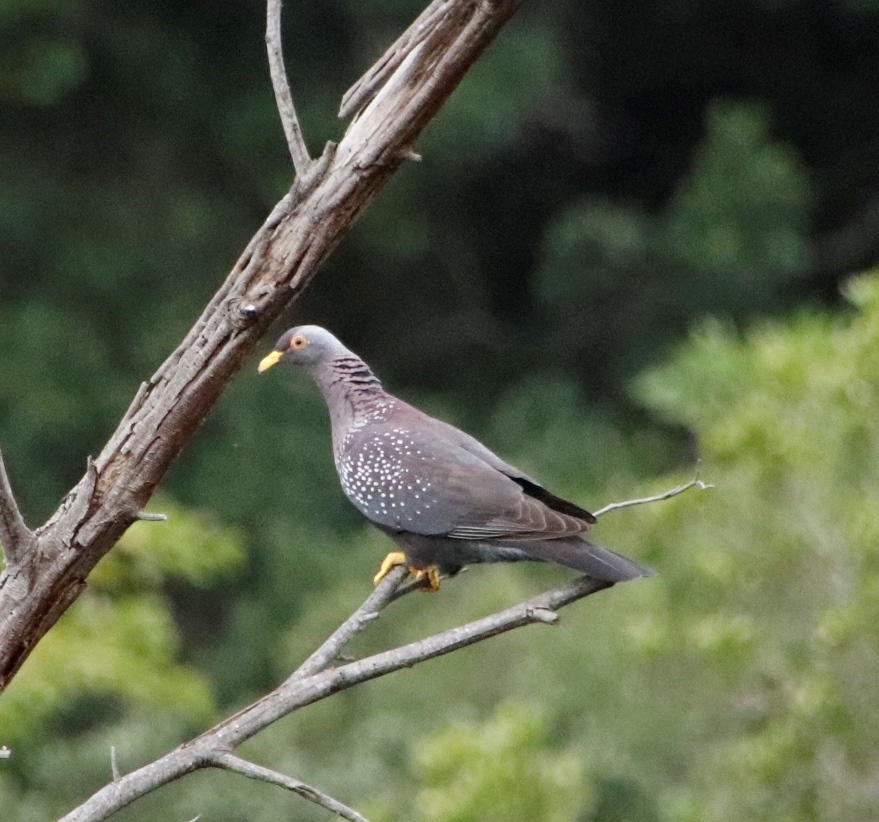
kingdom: Animalia
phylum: Chordata
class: Aves
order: Columbiformes
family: Columbidae
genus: Columba
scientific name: Columba arquatrix
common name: African olive pigeon
